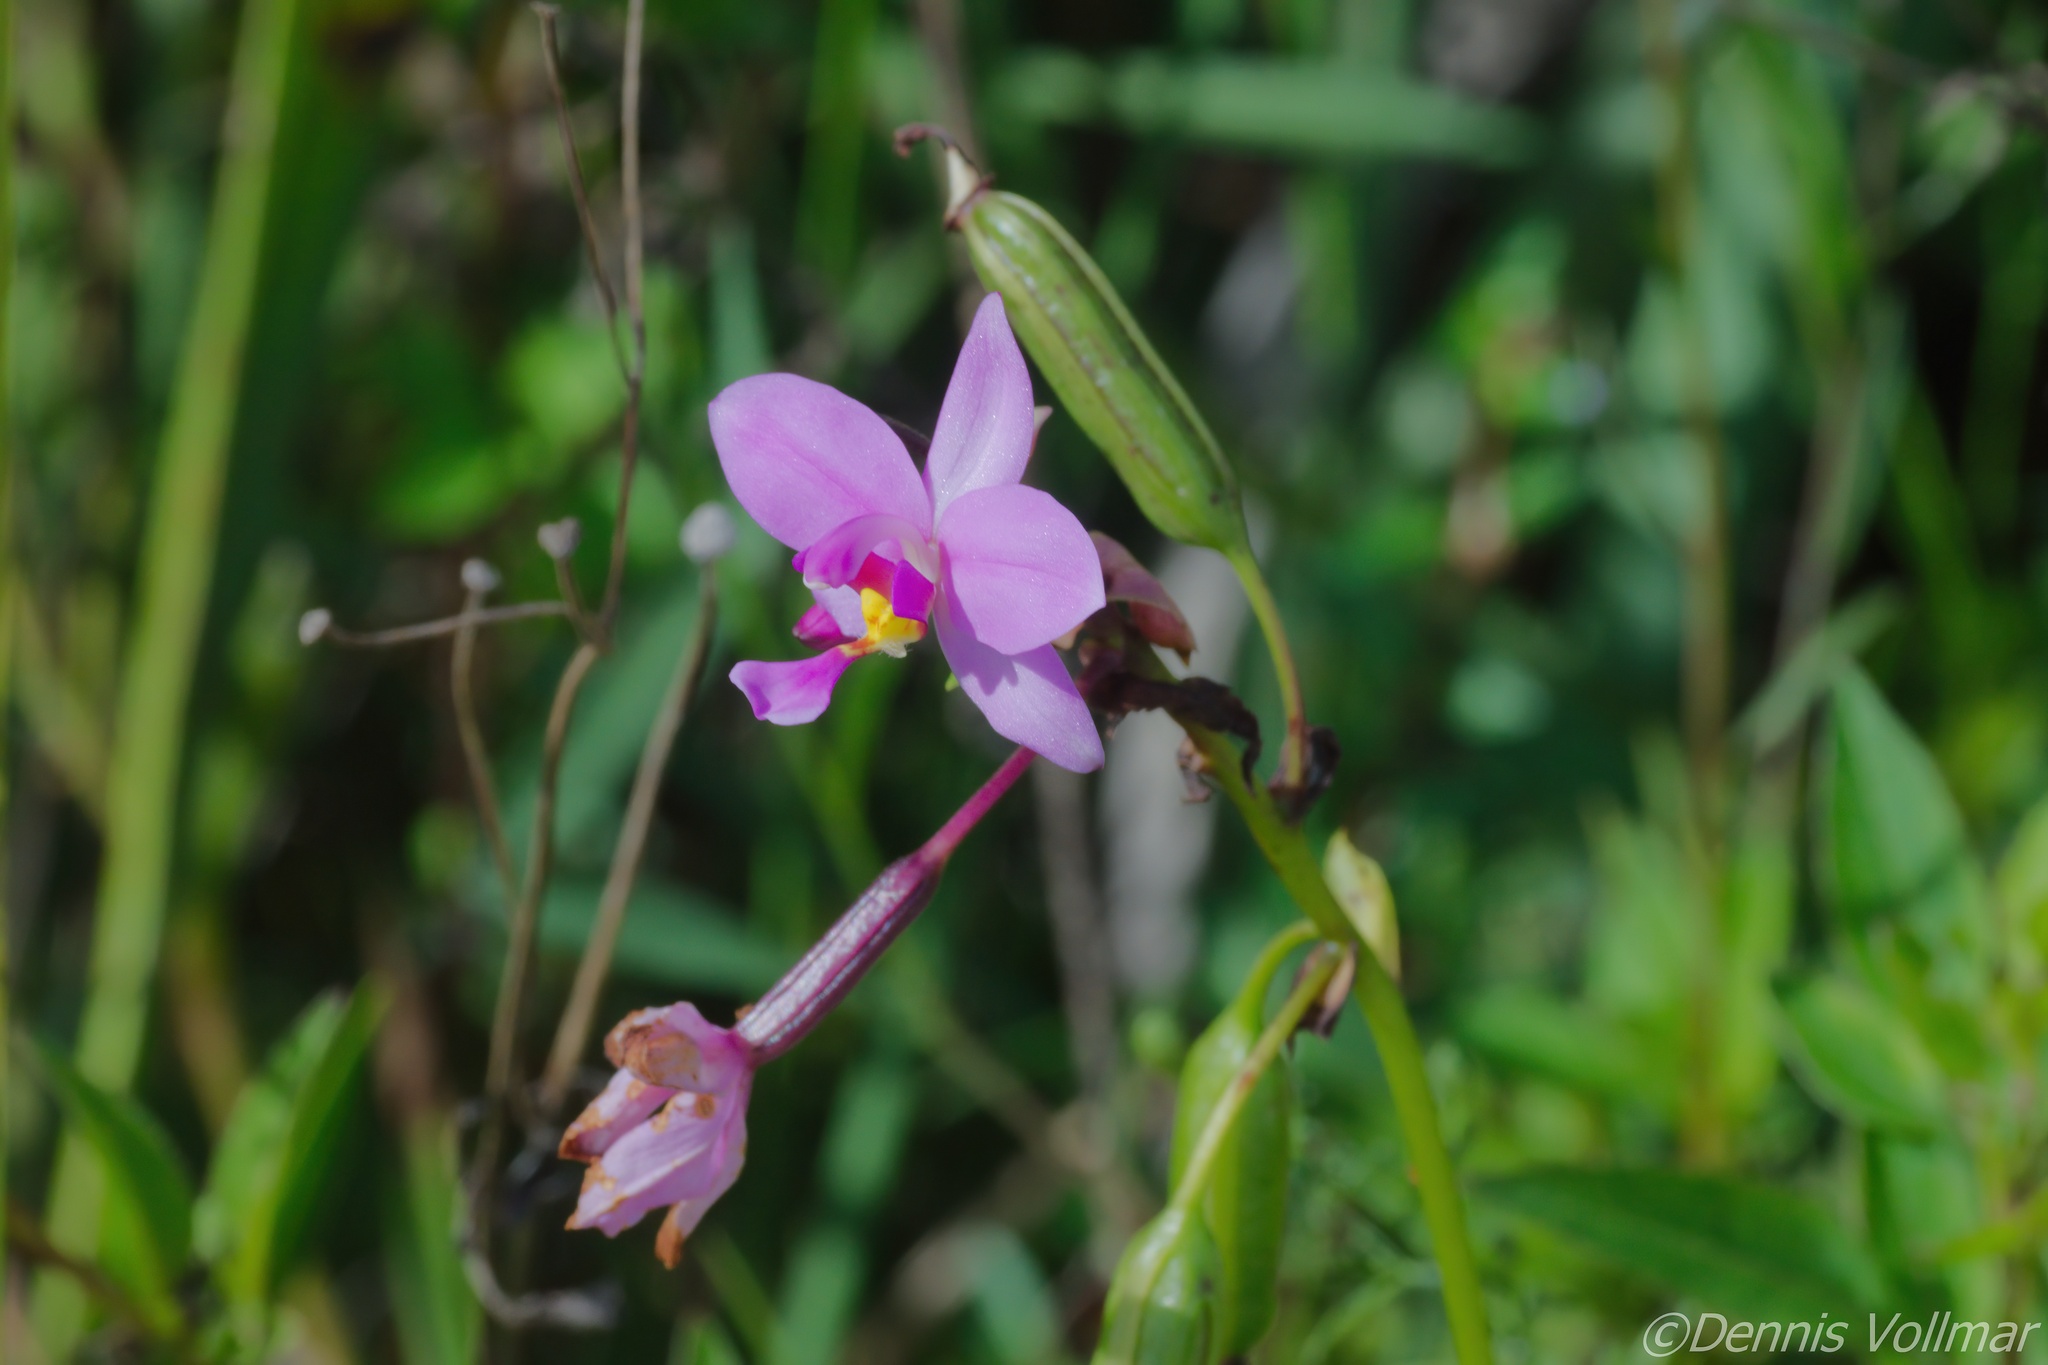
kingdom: Plantae
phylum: Tracheophyta
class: Liliopsida
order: Asparagales
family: Orchidaceae
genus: Spathoglottis
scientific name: Spathoglottis plicata
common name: Philippine ground orchid
